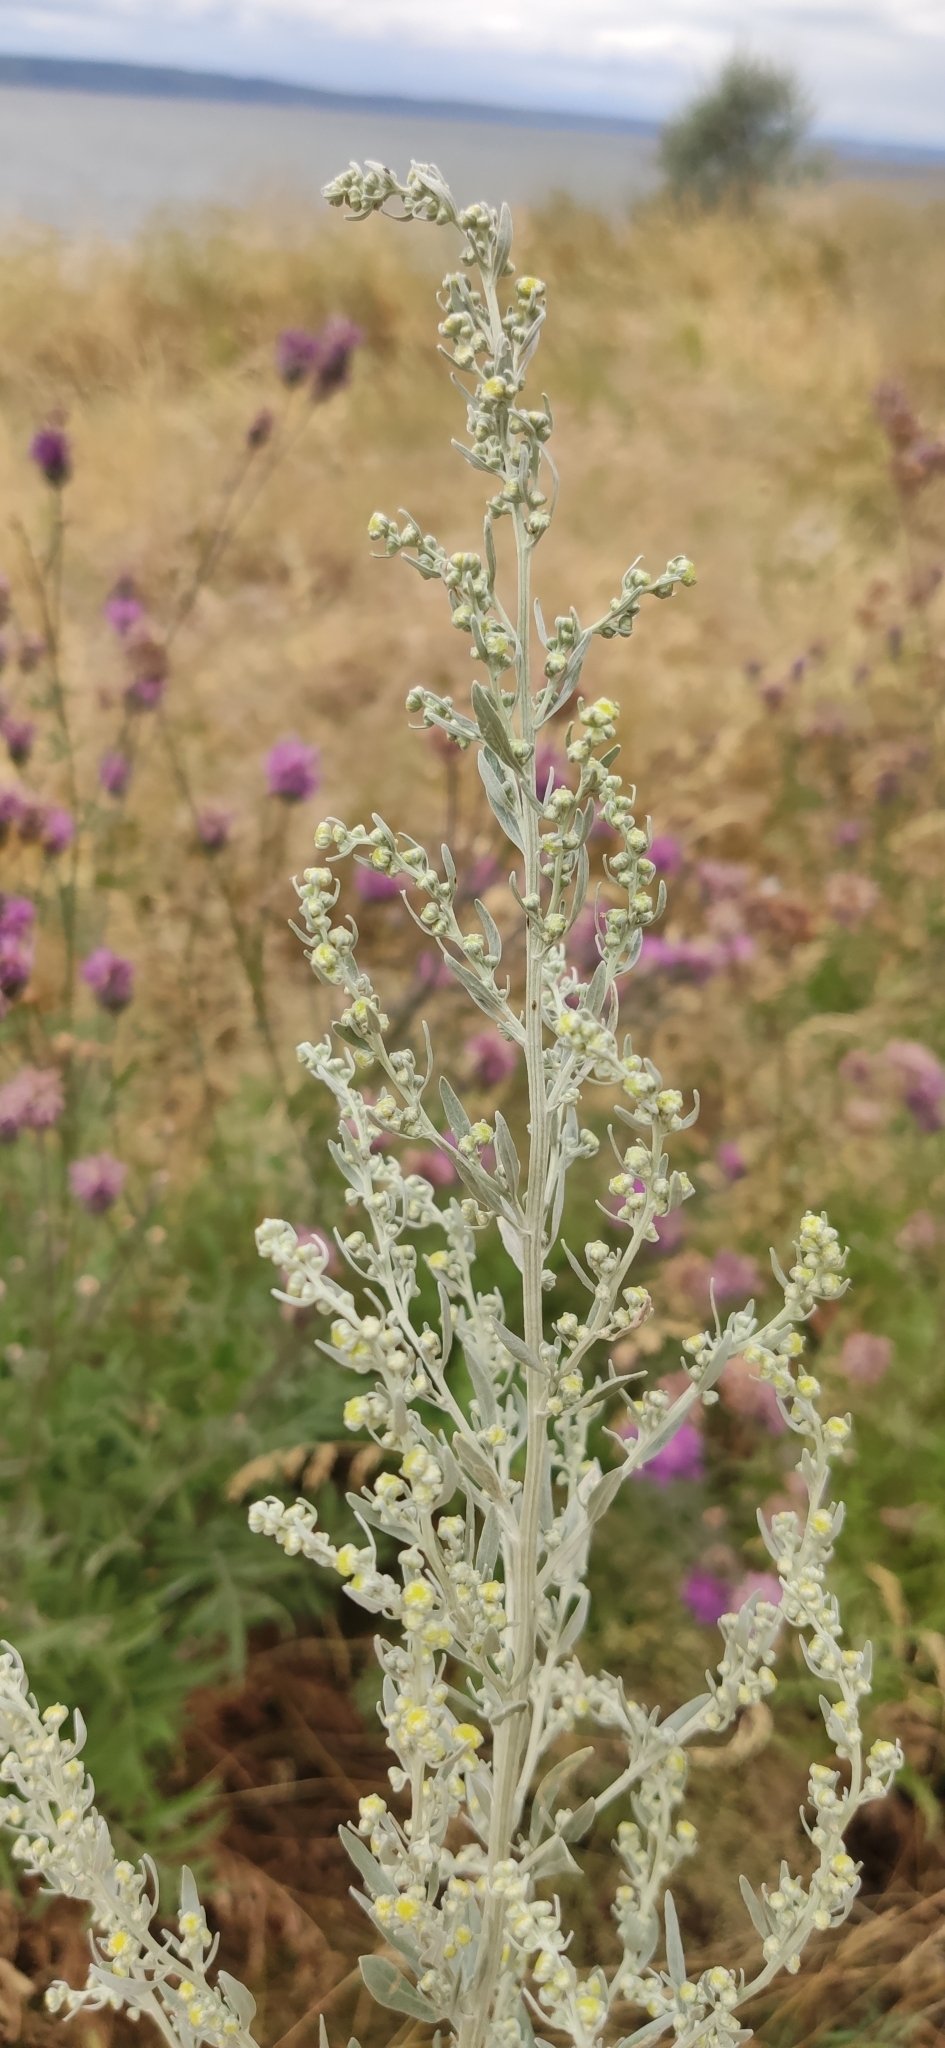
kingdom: Plantae
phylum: Tracheophyta
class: Magnoliopsida
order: Asterales
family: Asteraceae
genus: Artemisia
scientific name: Artemisia absinthium
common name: Wormwood
